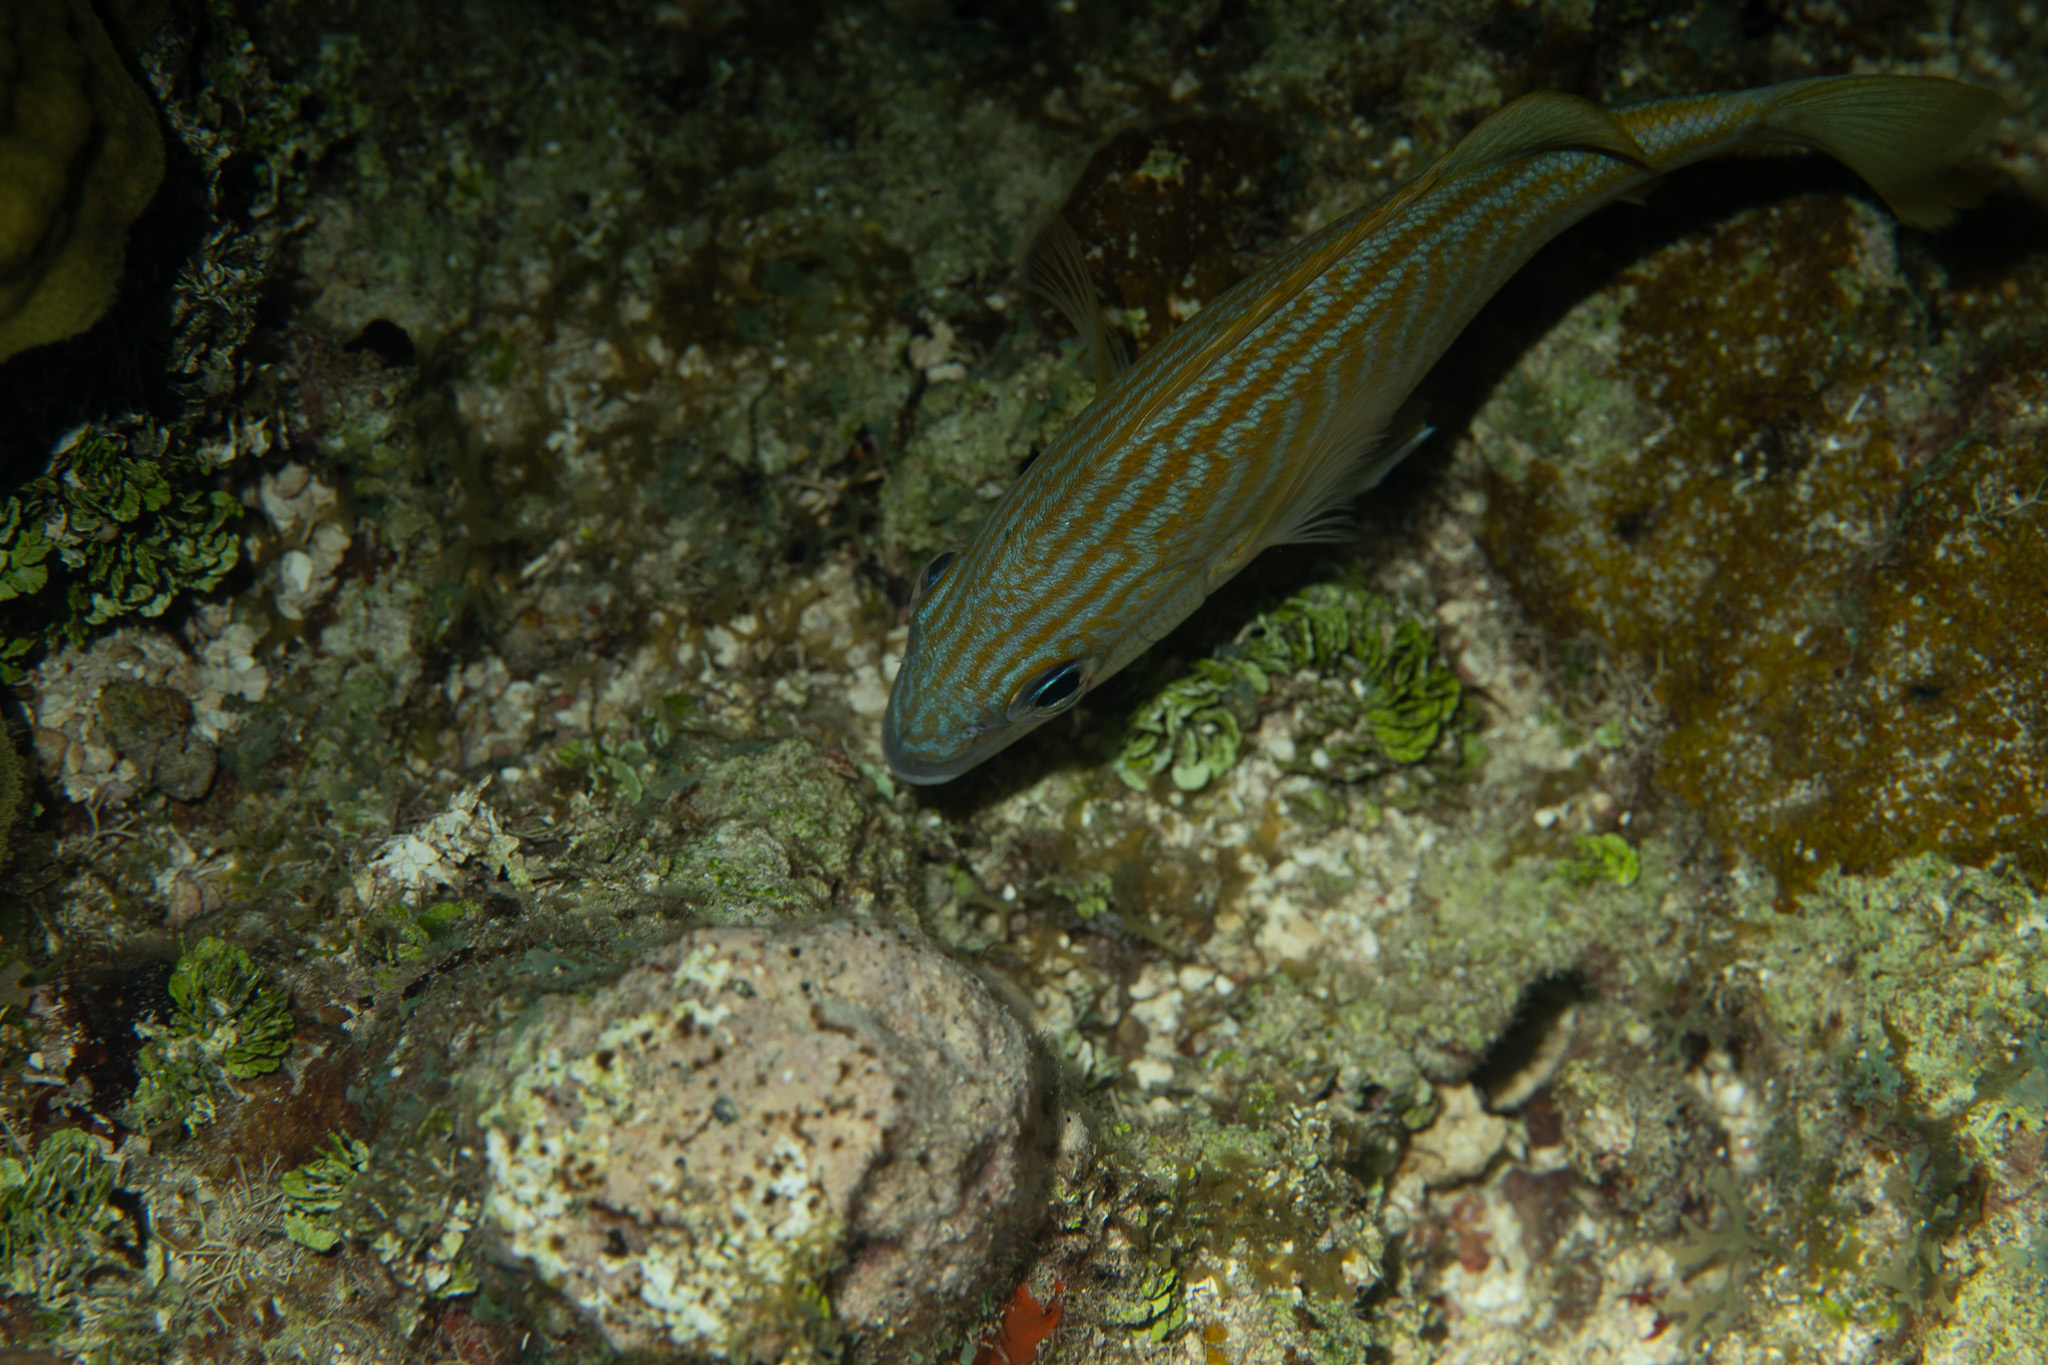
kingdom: Animalia
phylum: Chordata
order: Perciformes
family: Haemulidae
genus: Haemulon
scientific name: Haemulon flavolineatum
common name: French grunt
